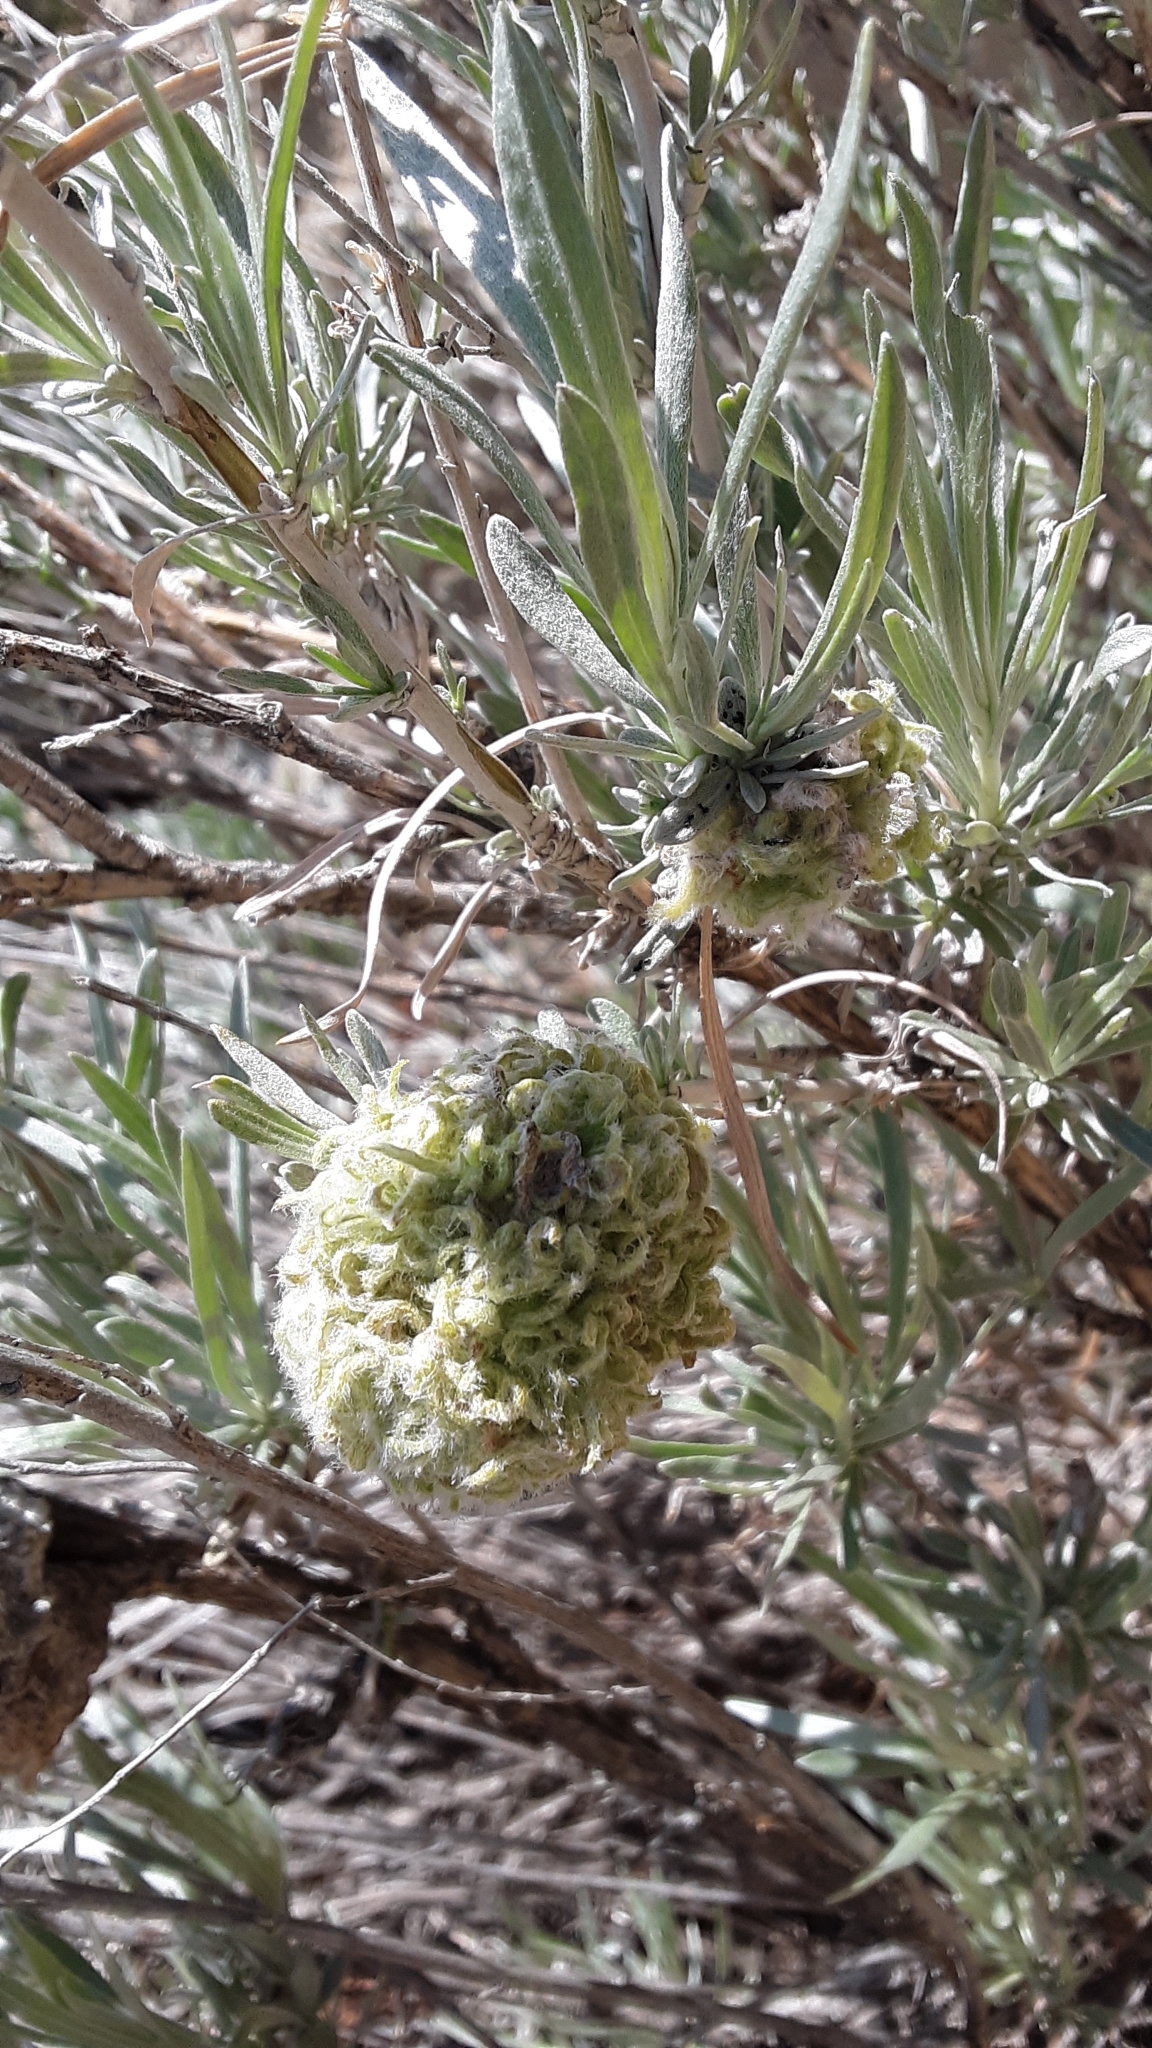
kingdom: Animalia
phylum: Arthropoda
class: Insecta
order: Diptera
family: Cecidomyiidae
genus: Rhopalomyia
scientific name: Rhopalomyia medusirrasa
